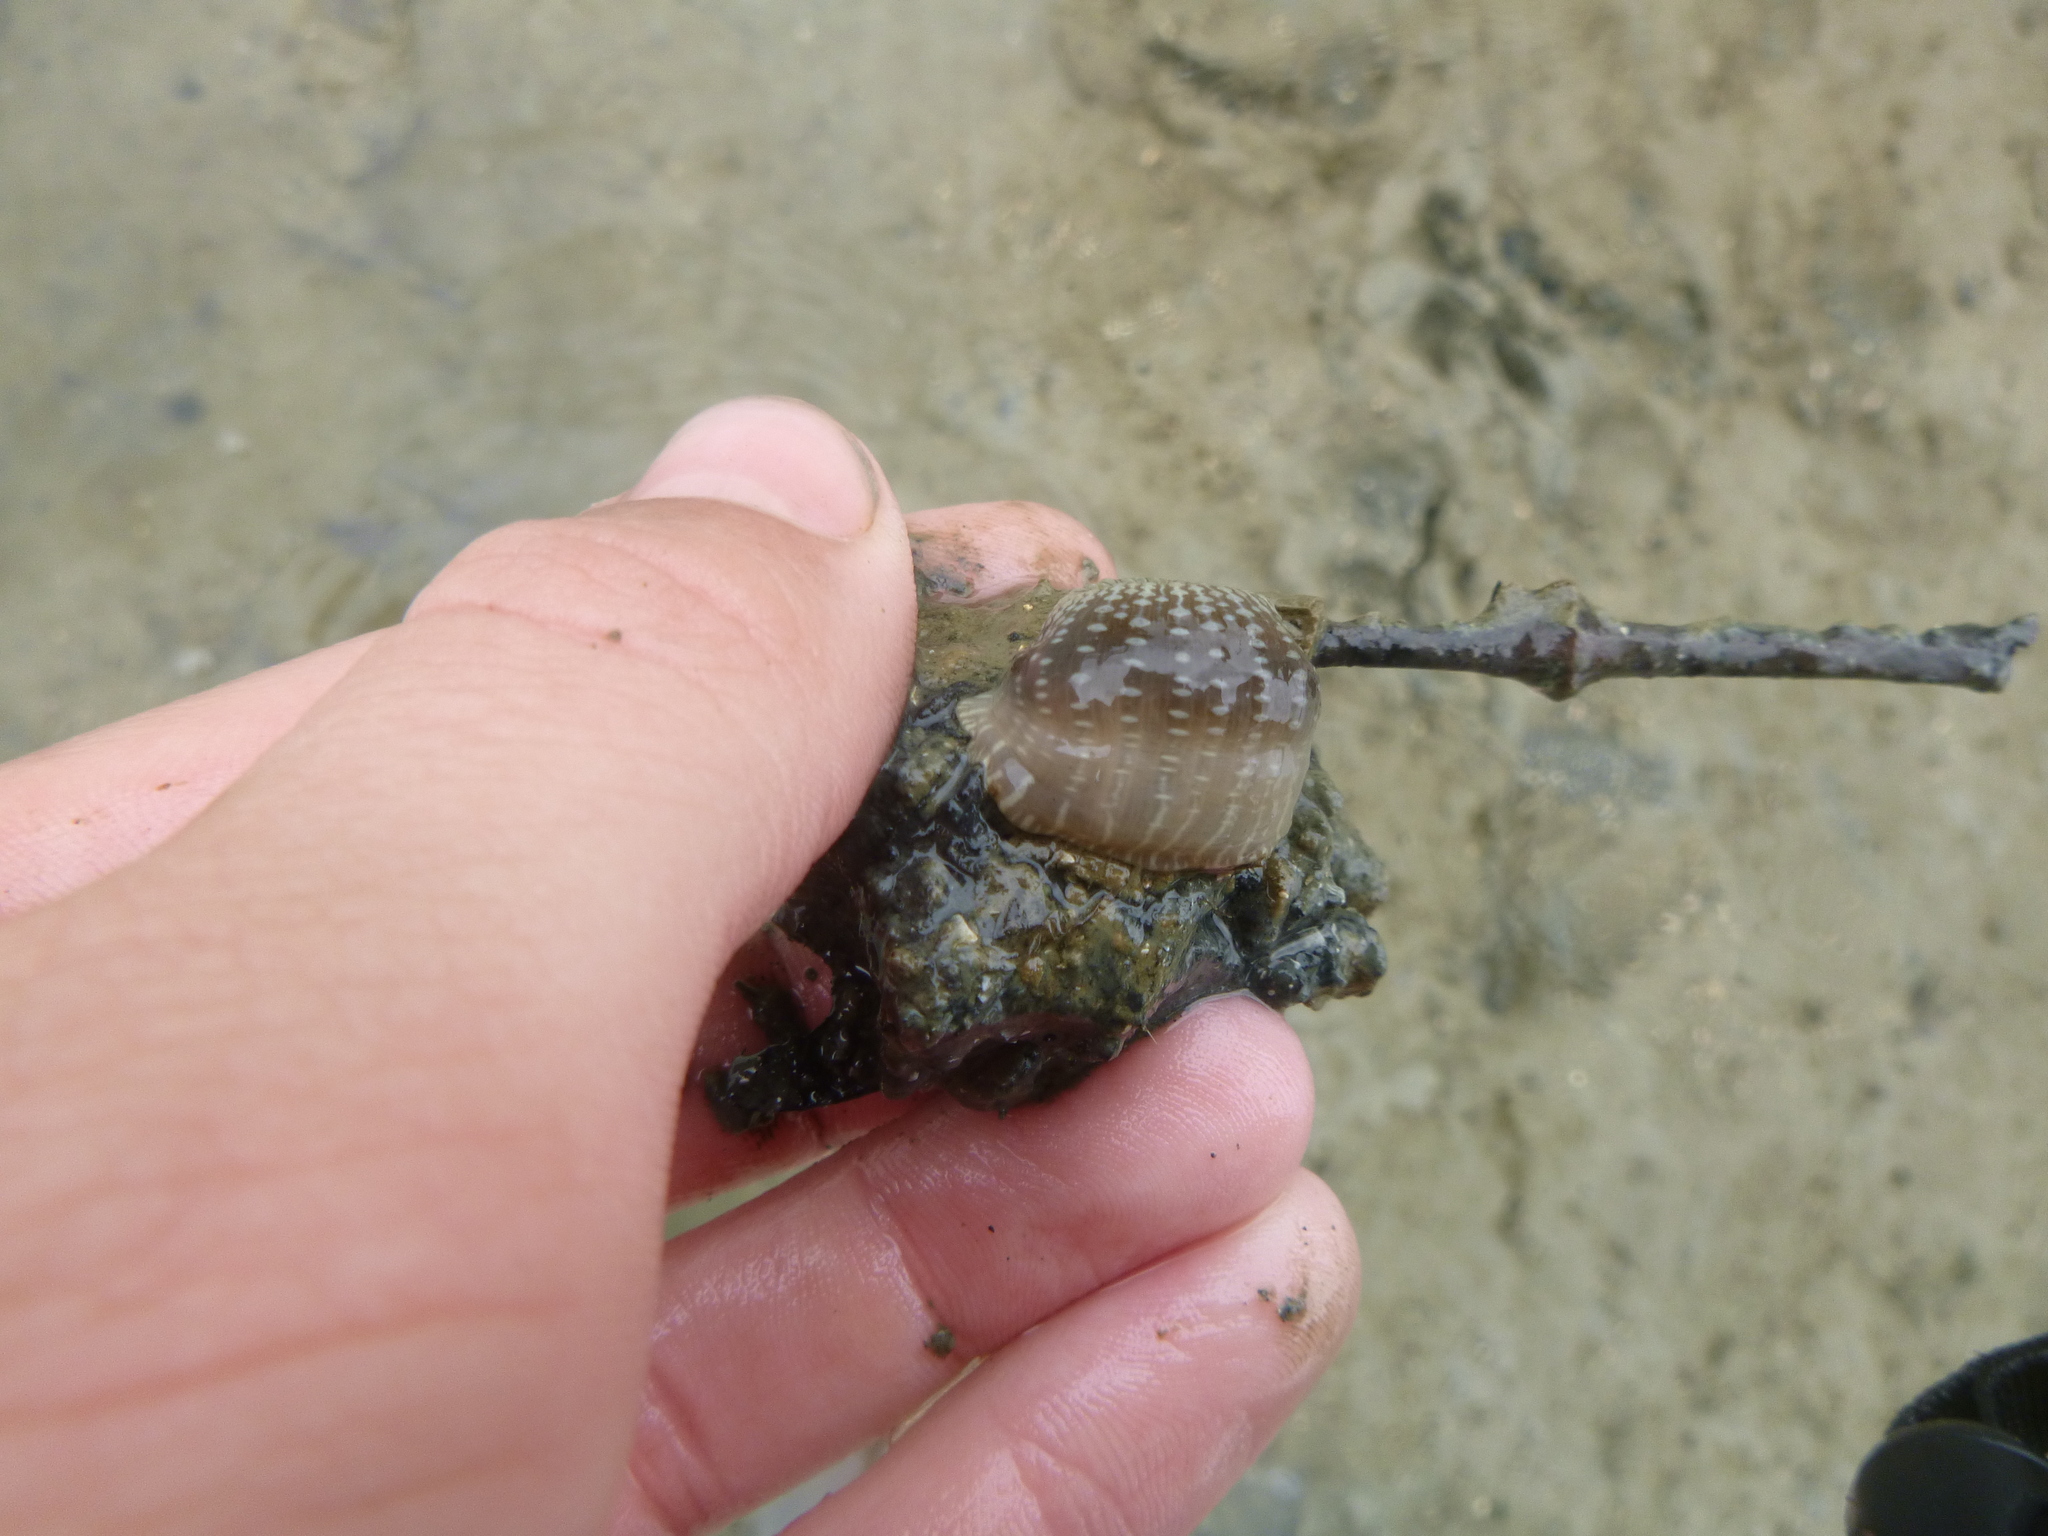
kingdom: Animalia
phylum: Cnidaria
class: Anthozoa
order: Actiniaria
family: Actiniidae
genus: Anthopleura
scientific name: Anthopleura hermaphroditica
